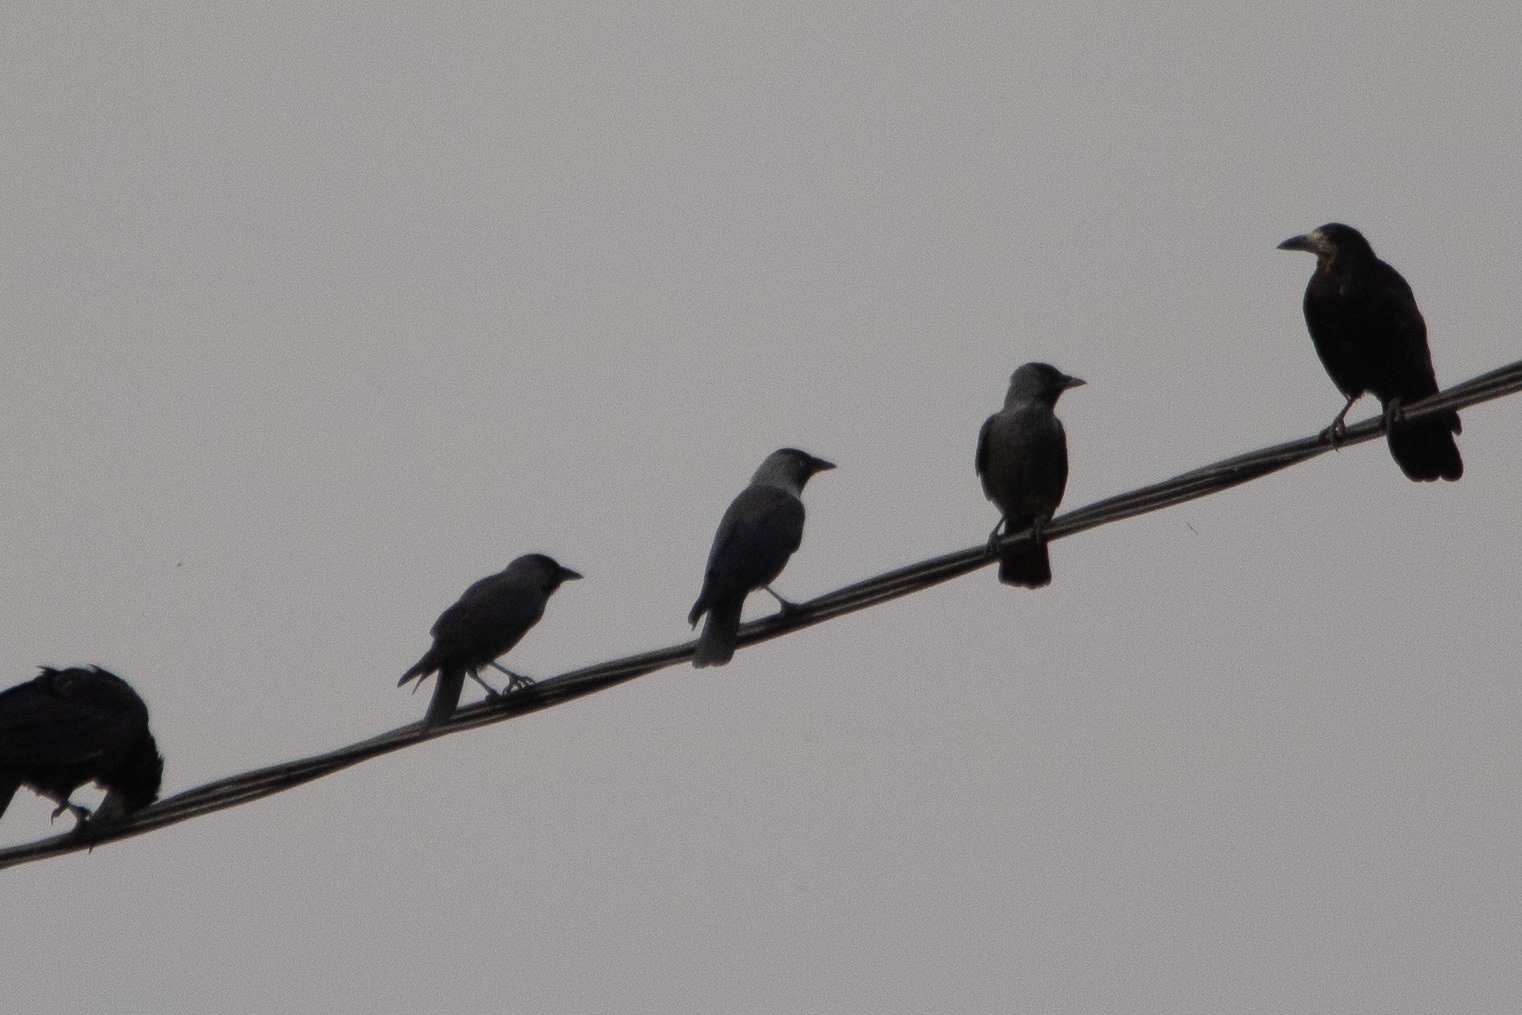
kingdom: Animalia
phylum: Chordata
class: Aves
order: Passeriformes
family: Corvidae
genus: Coloeus
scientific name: Coloeus monedula
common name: Western jackdaw
